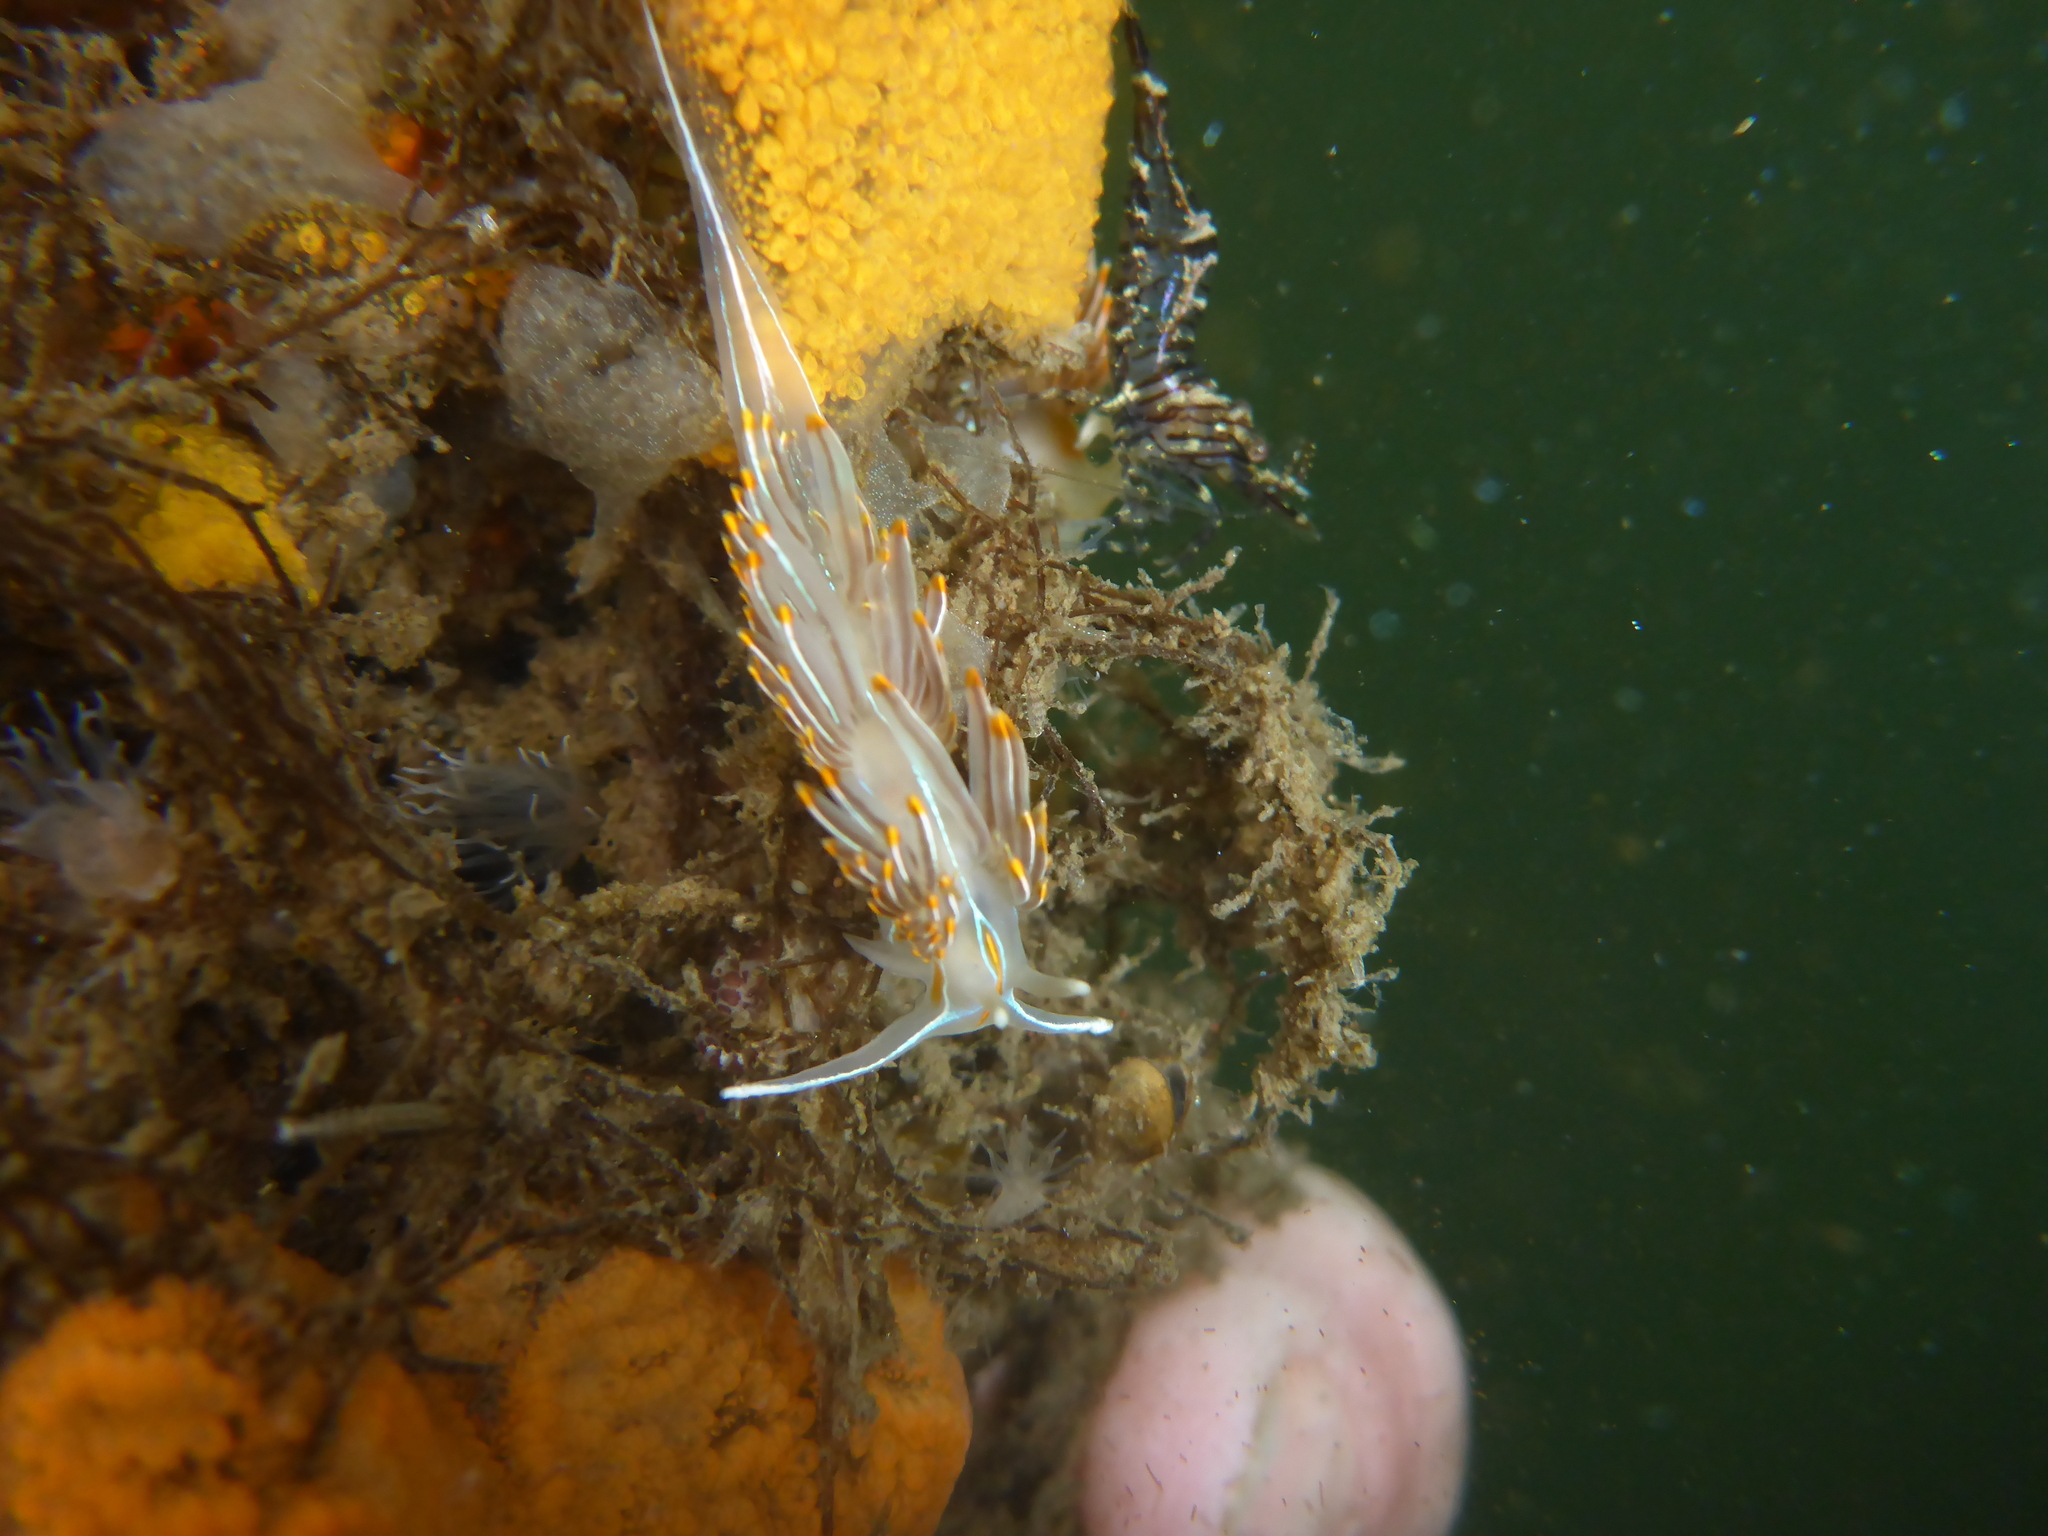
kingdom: Animalia
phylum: Mollusca
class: Gastropoda
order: Nudibranchia
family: Myrrhinidae
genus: Hermissenda
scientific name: Hermissenda crassicornis
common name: Hermissenda
